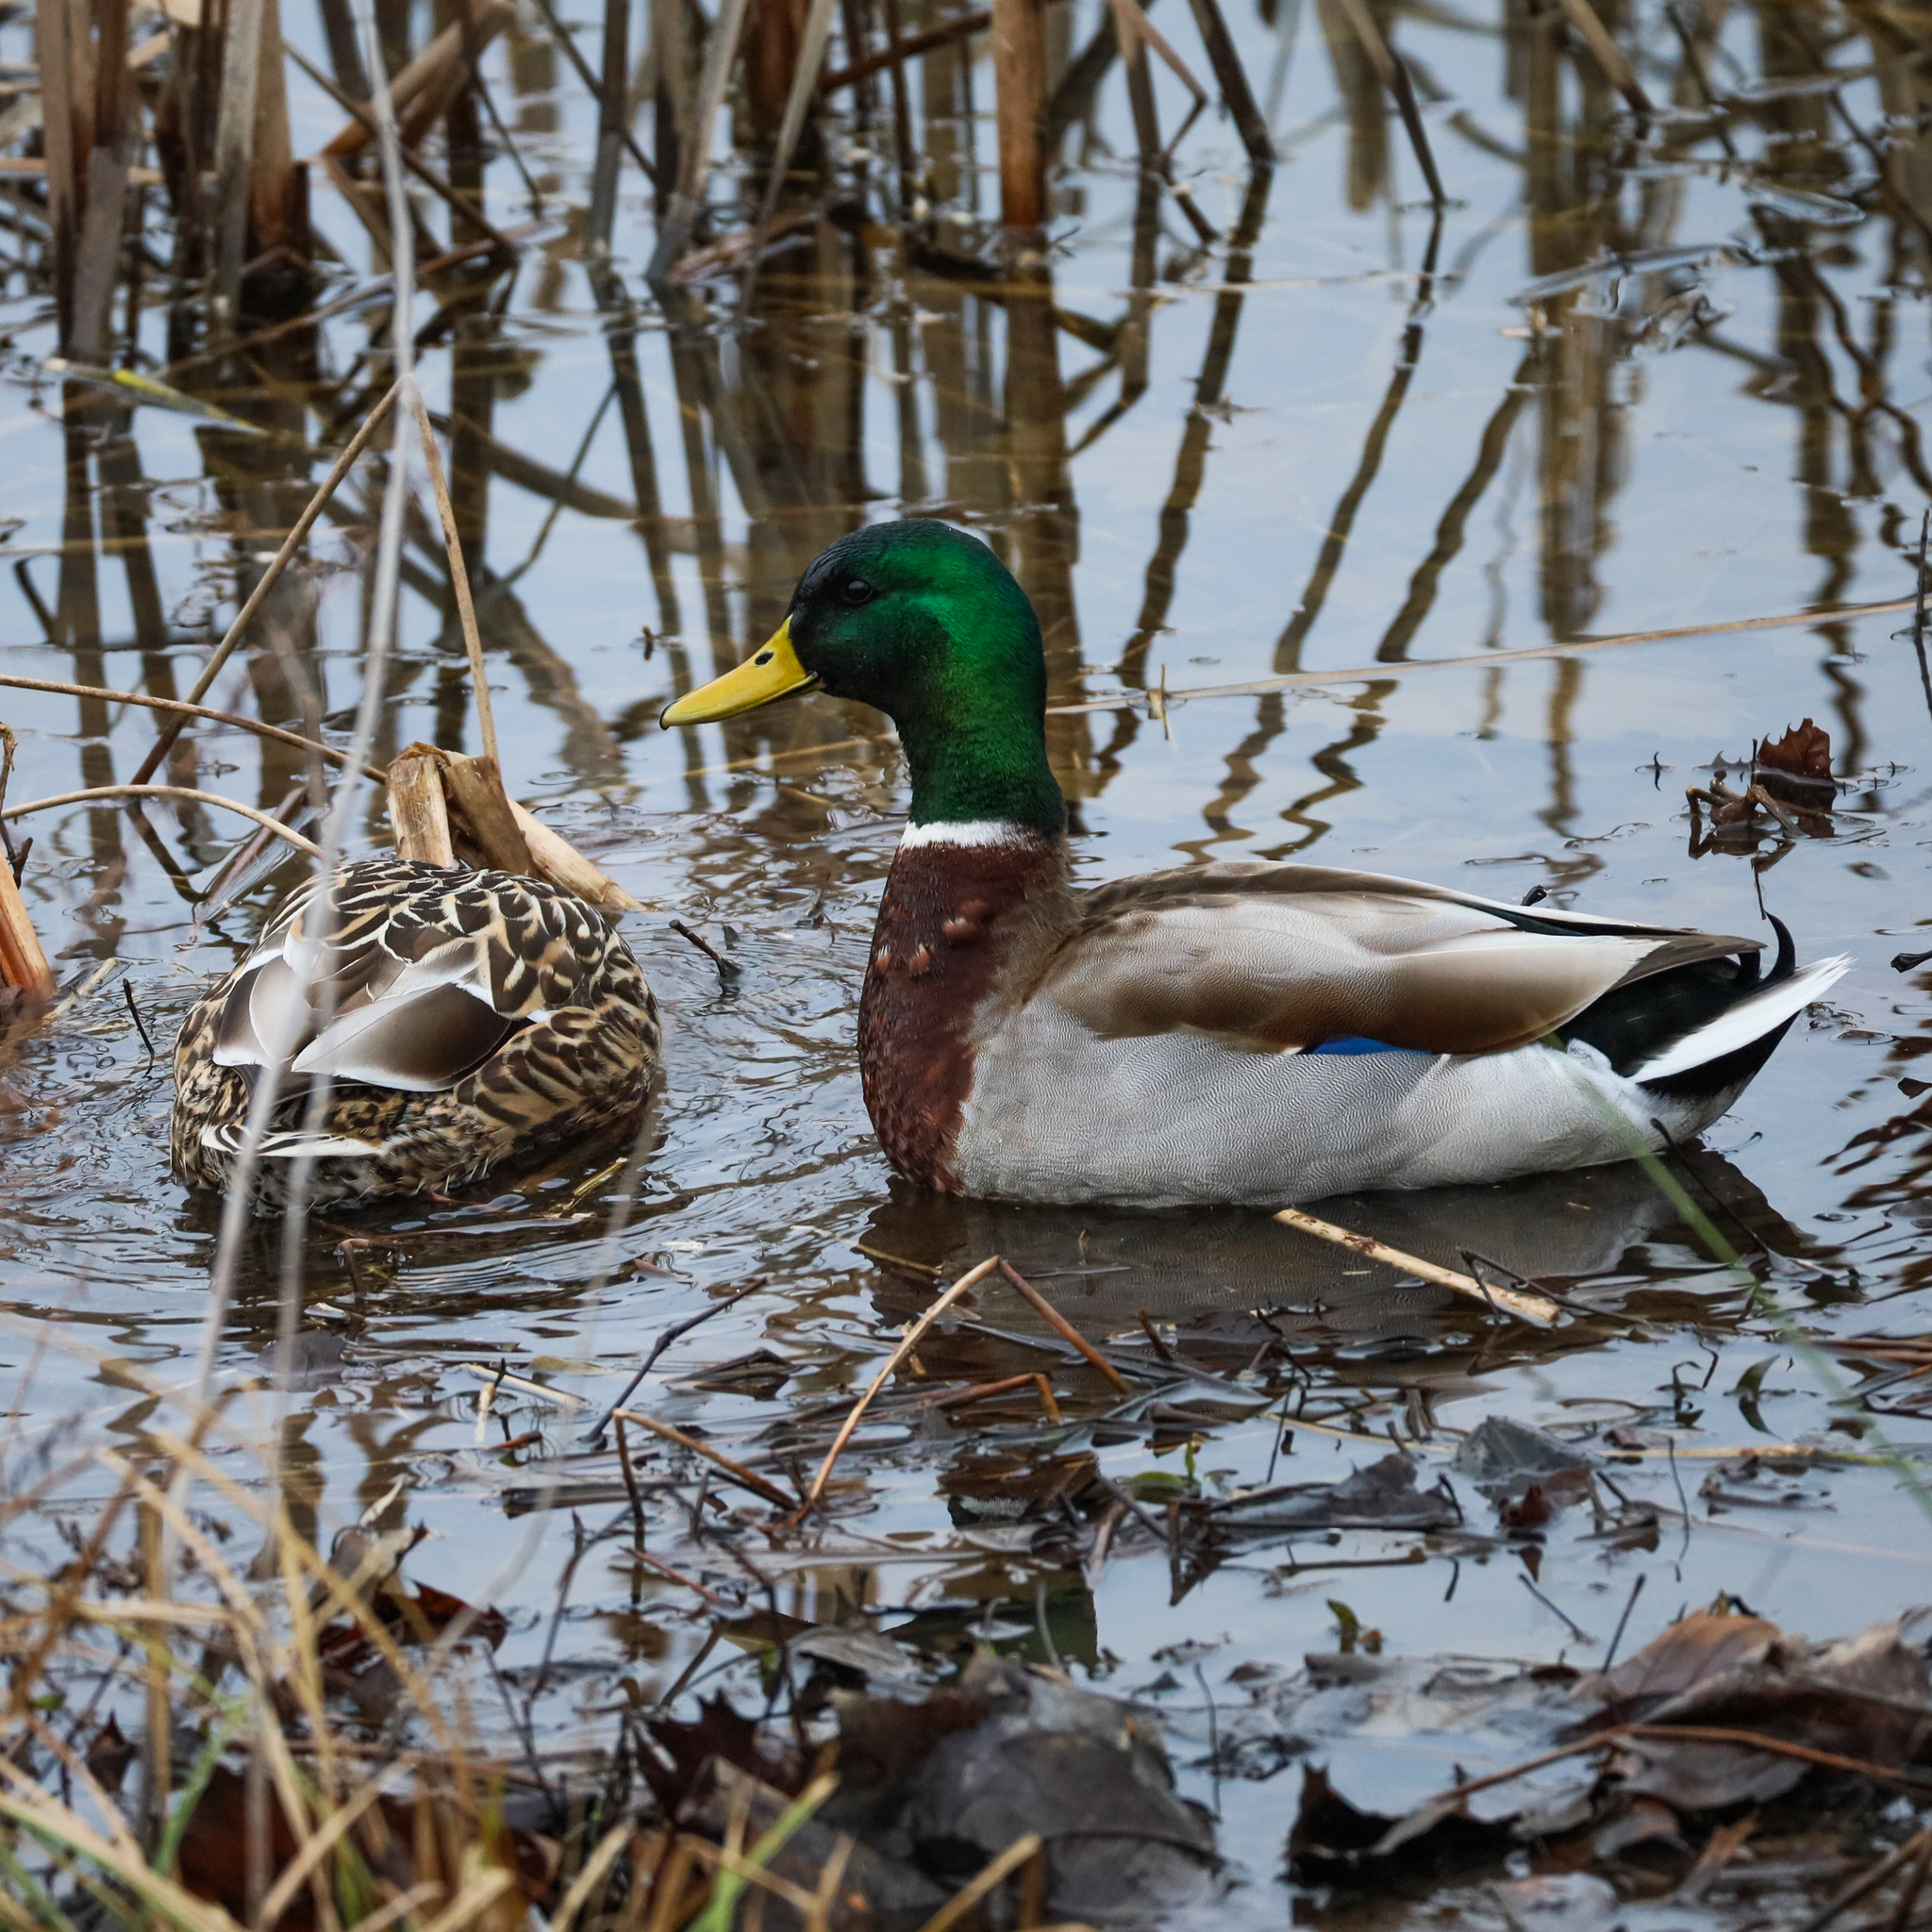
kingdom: Animalia
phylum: Chordata
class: Aves
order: Anseriformes
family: Anatidae
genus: Anas
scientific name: Anas platyrhynchos
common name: Mallard
